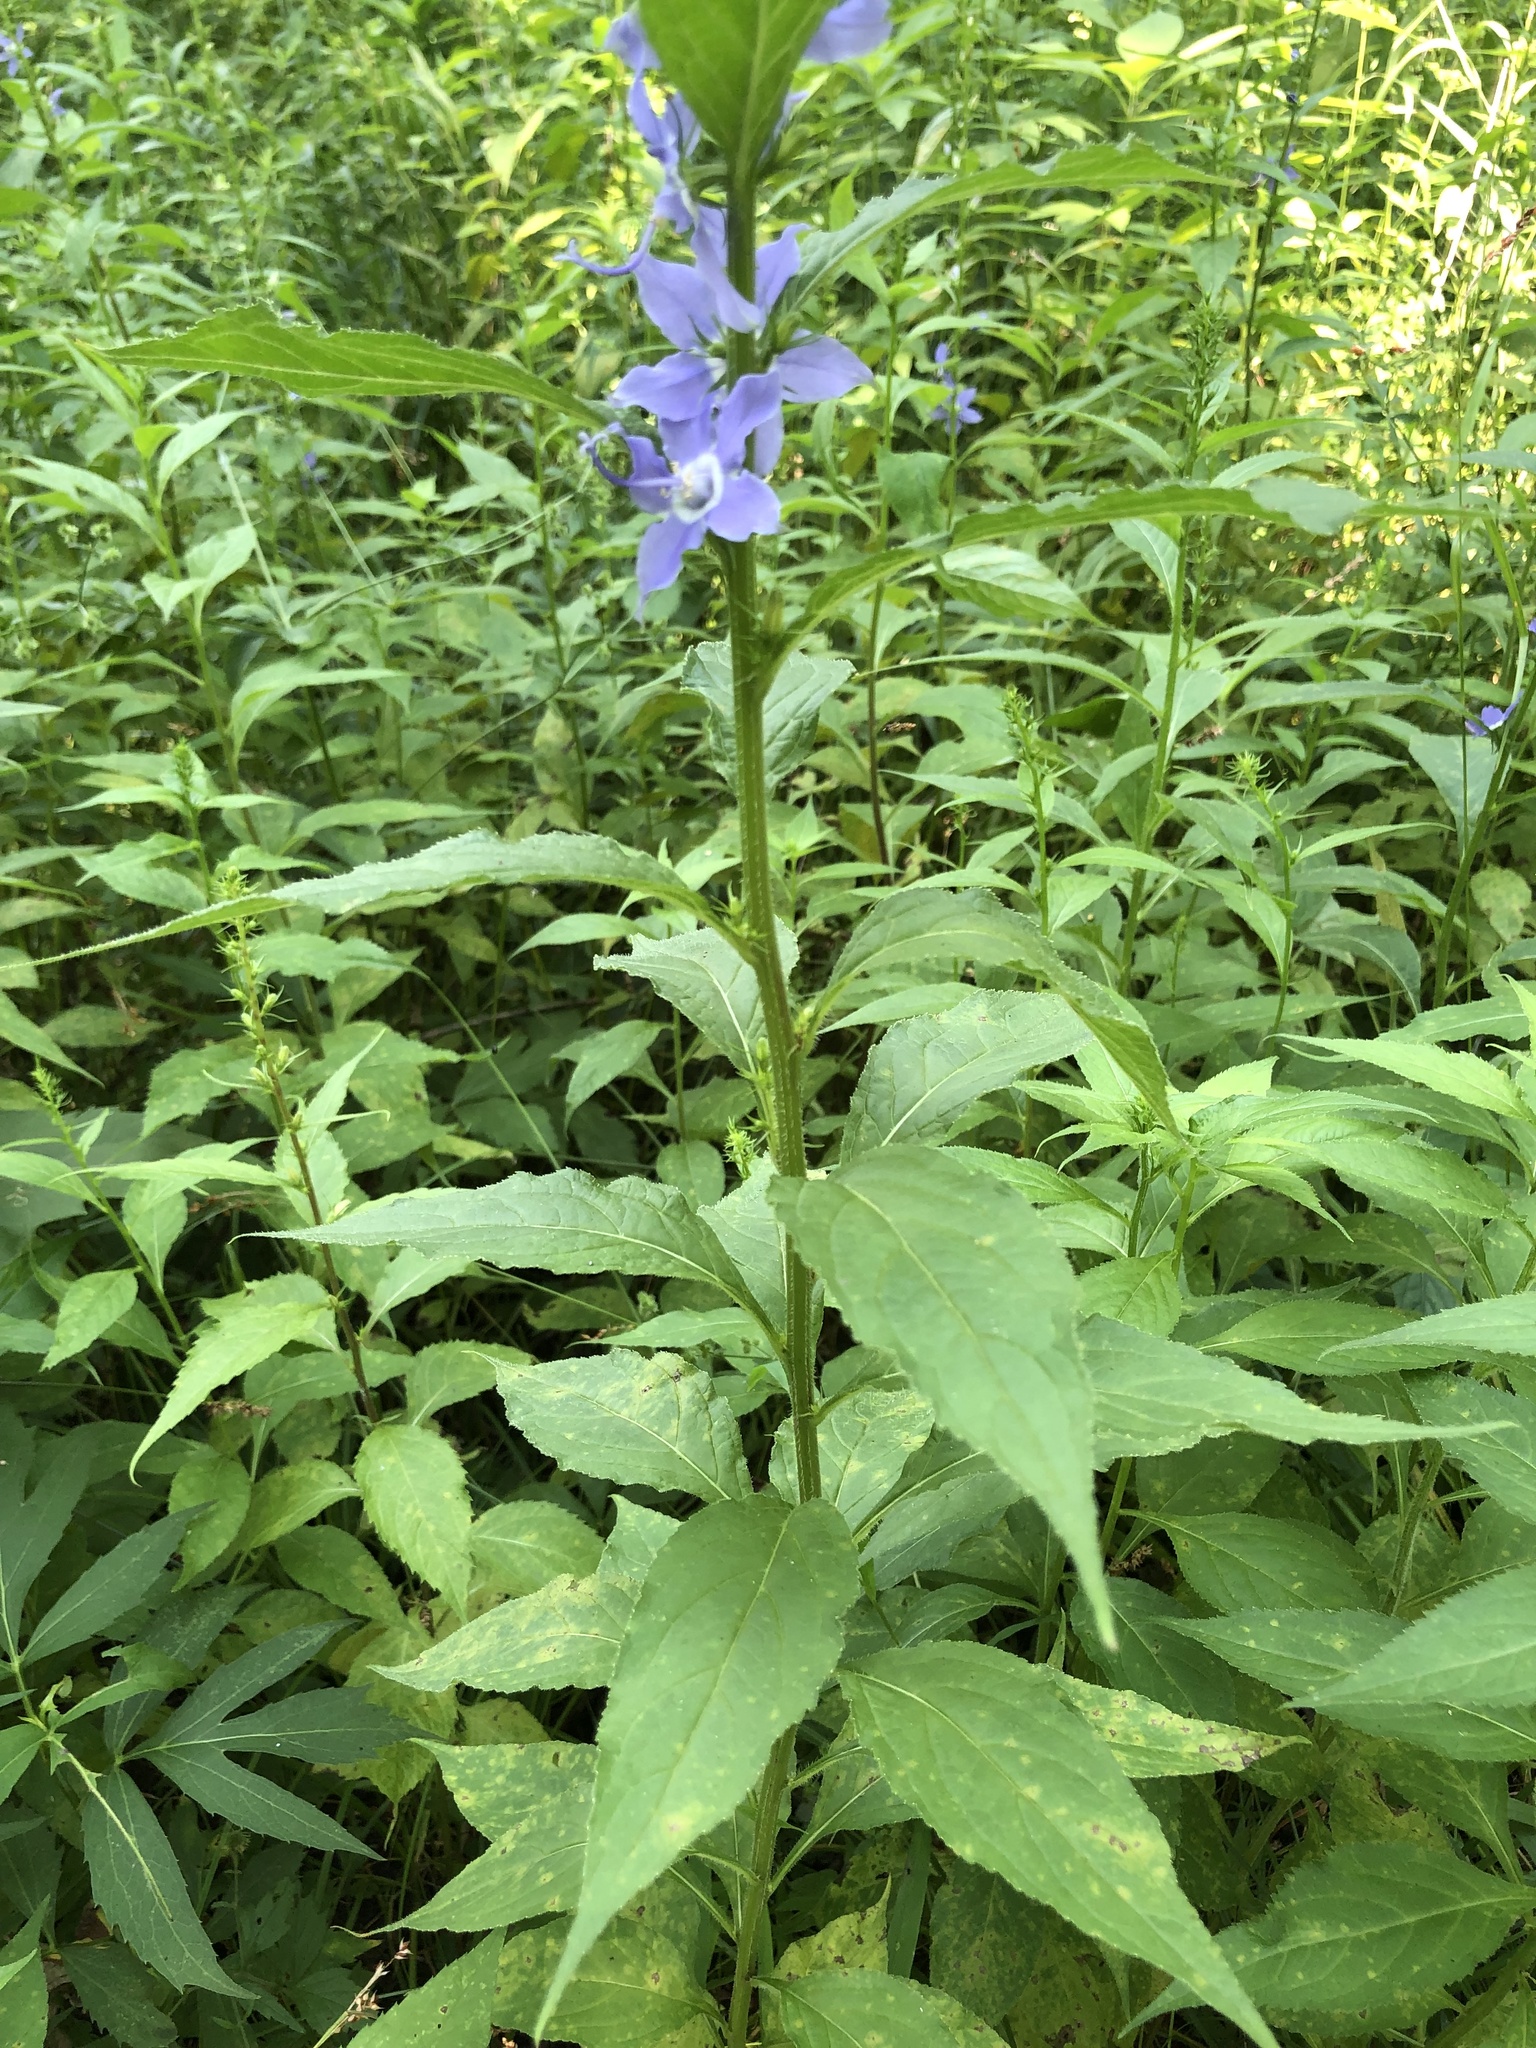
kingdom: Plantae
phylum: Tracheophyta
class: Magnoliopsida
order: Asterales
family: Campanulaceae
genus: Campanulastrum
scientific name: Campanulastrum americanum
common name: American bellflower
